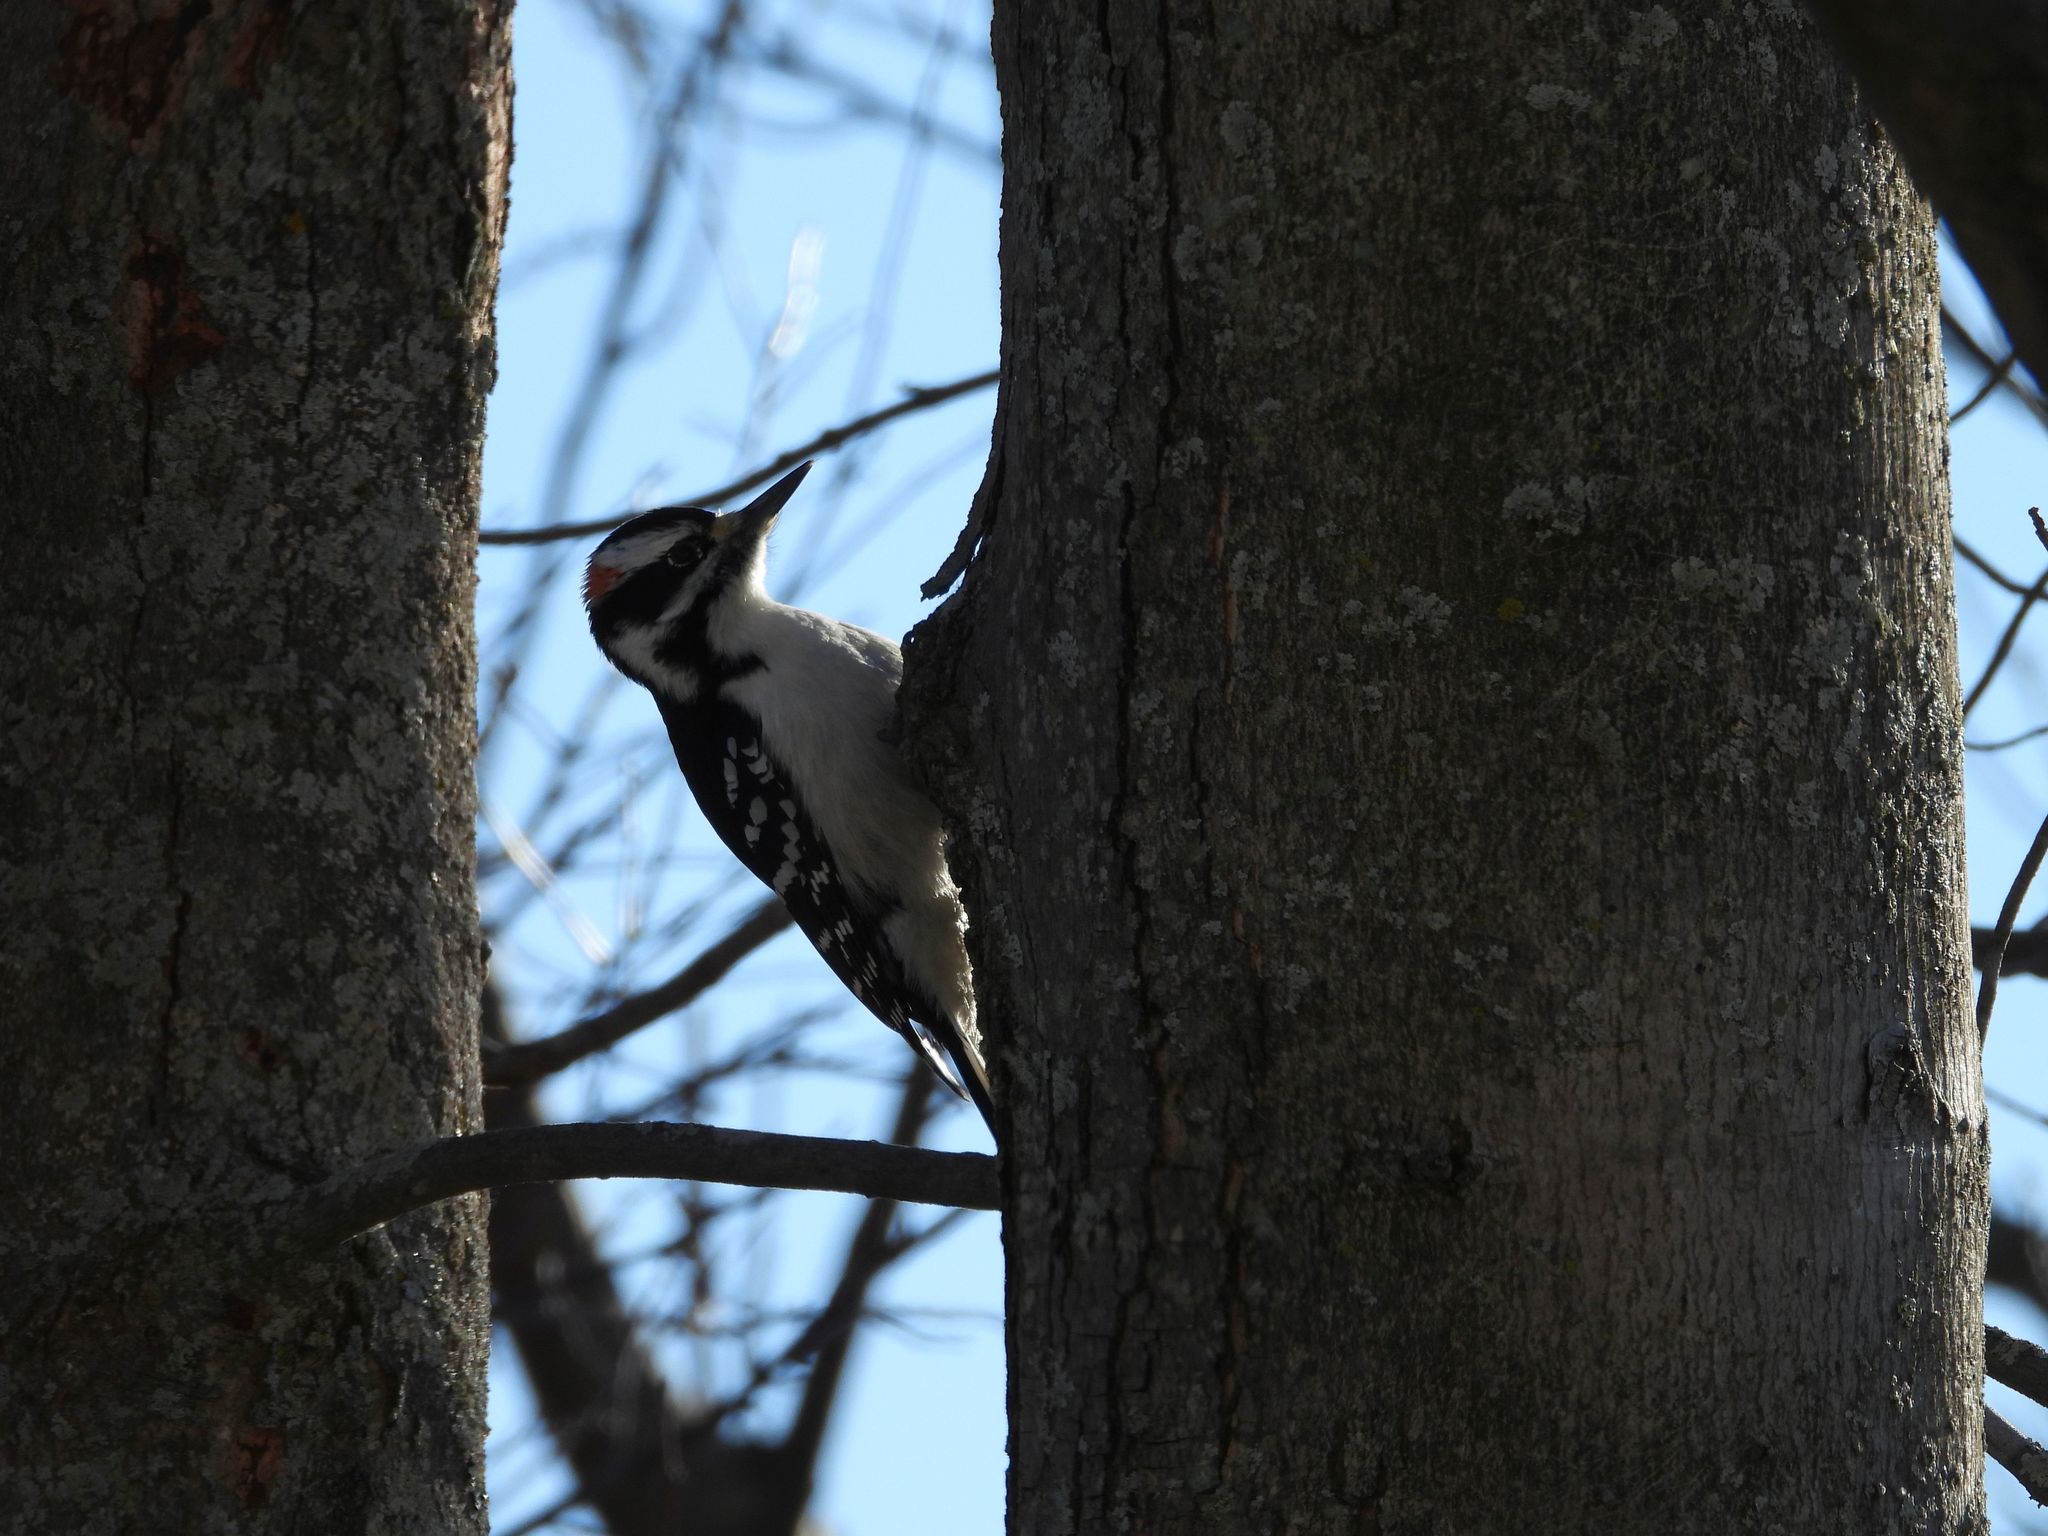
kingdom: Animalia
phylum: Chordata
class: Aves
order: Piciformes
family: Picidae
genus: Leuconotopicus
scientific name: Leuconotopicus villosus
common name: Hairy woodpecker
